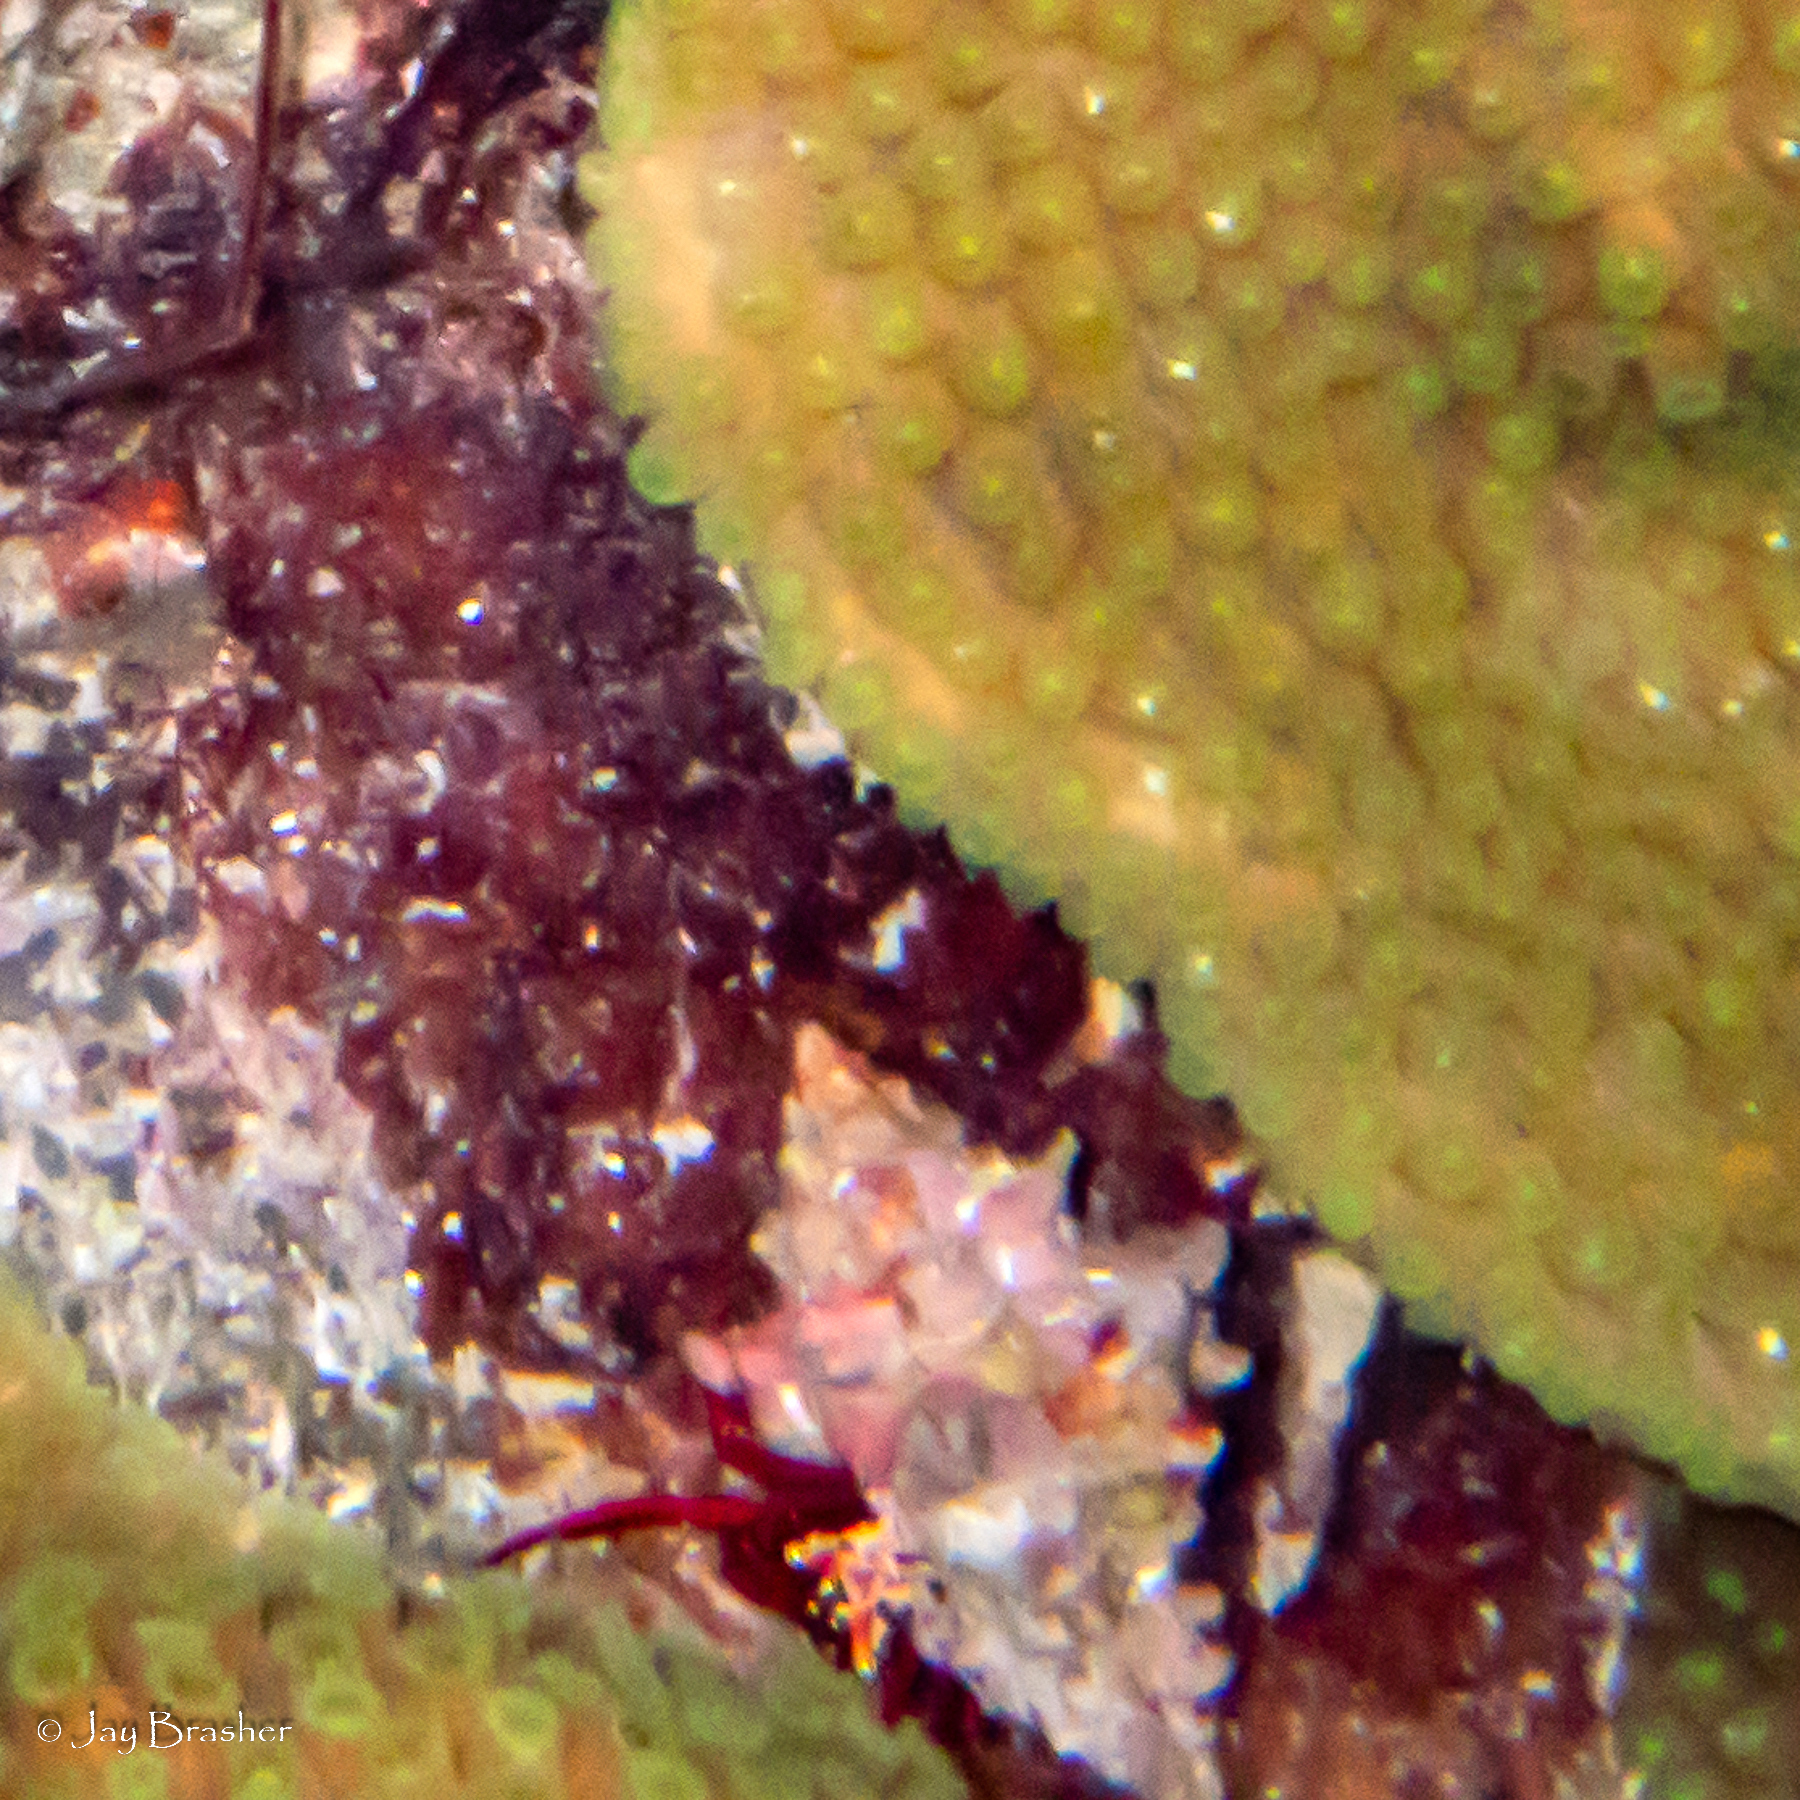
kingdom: Animalia
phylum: Arthropoda
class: Malacostraca
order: Decapoda
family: Diogenidae
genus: Paguristes
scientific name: Paguristes cadenati
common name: Red reef hermit
